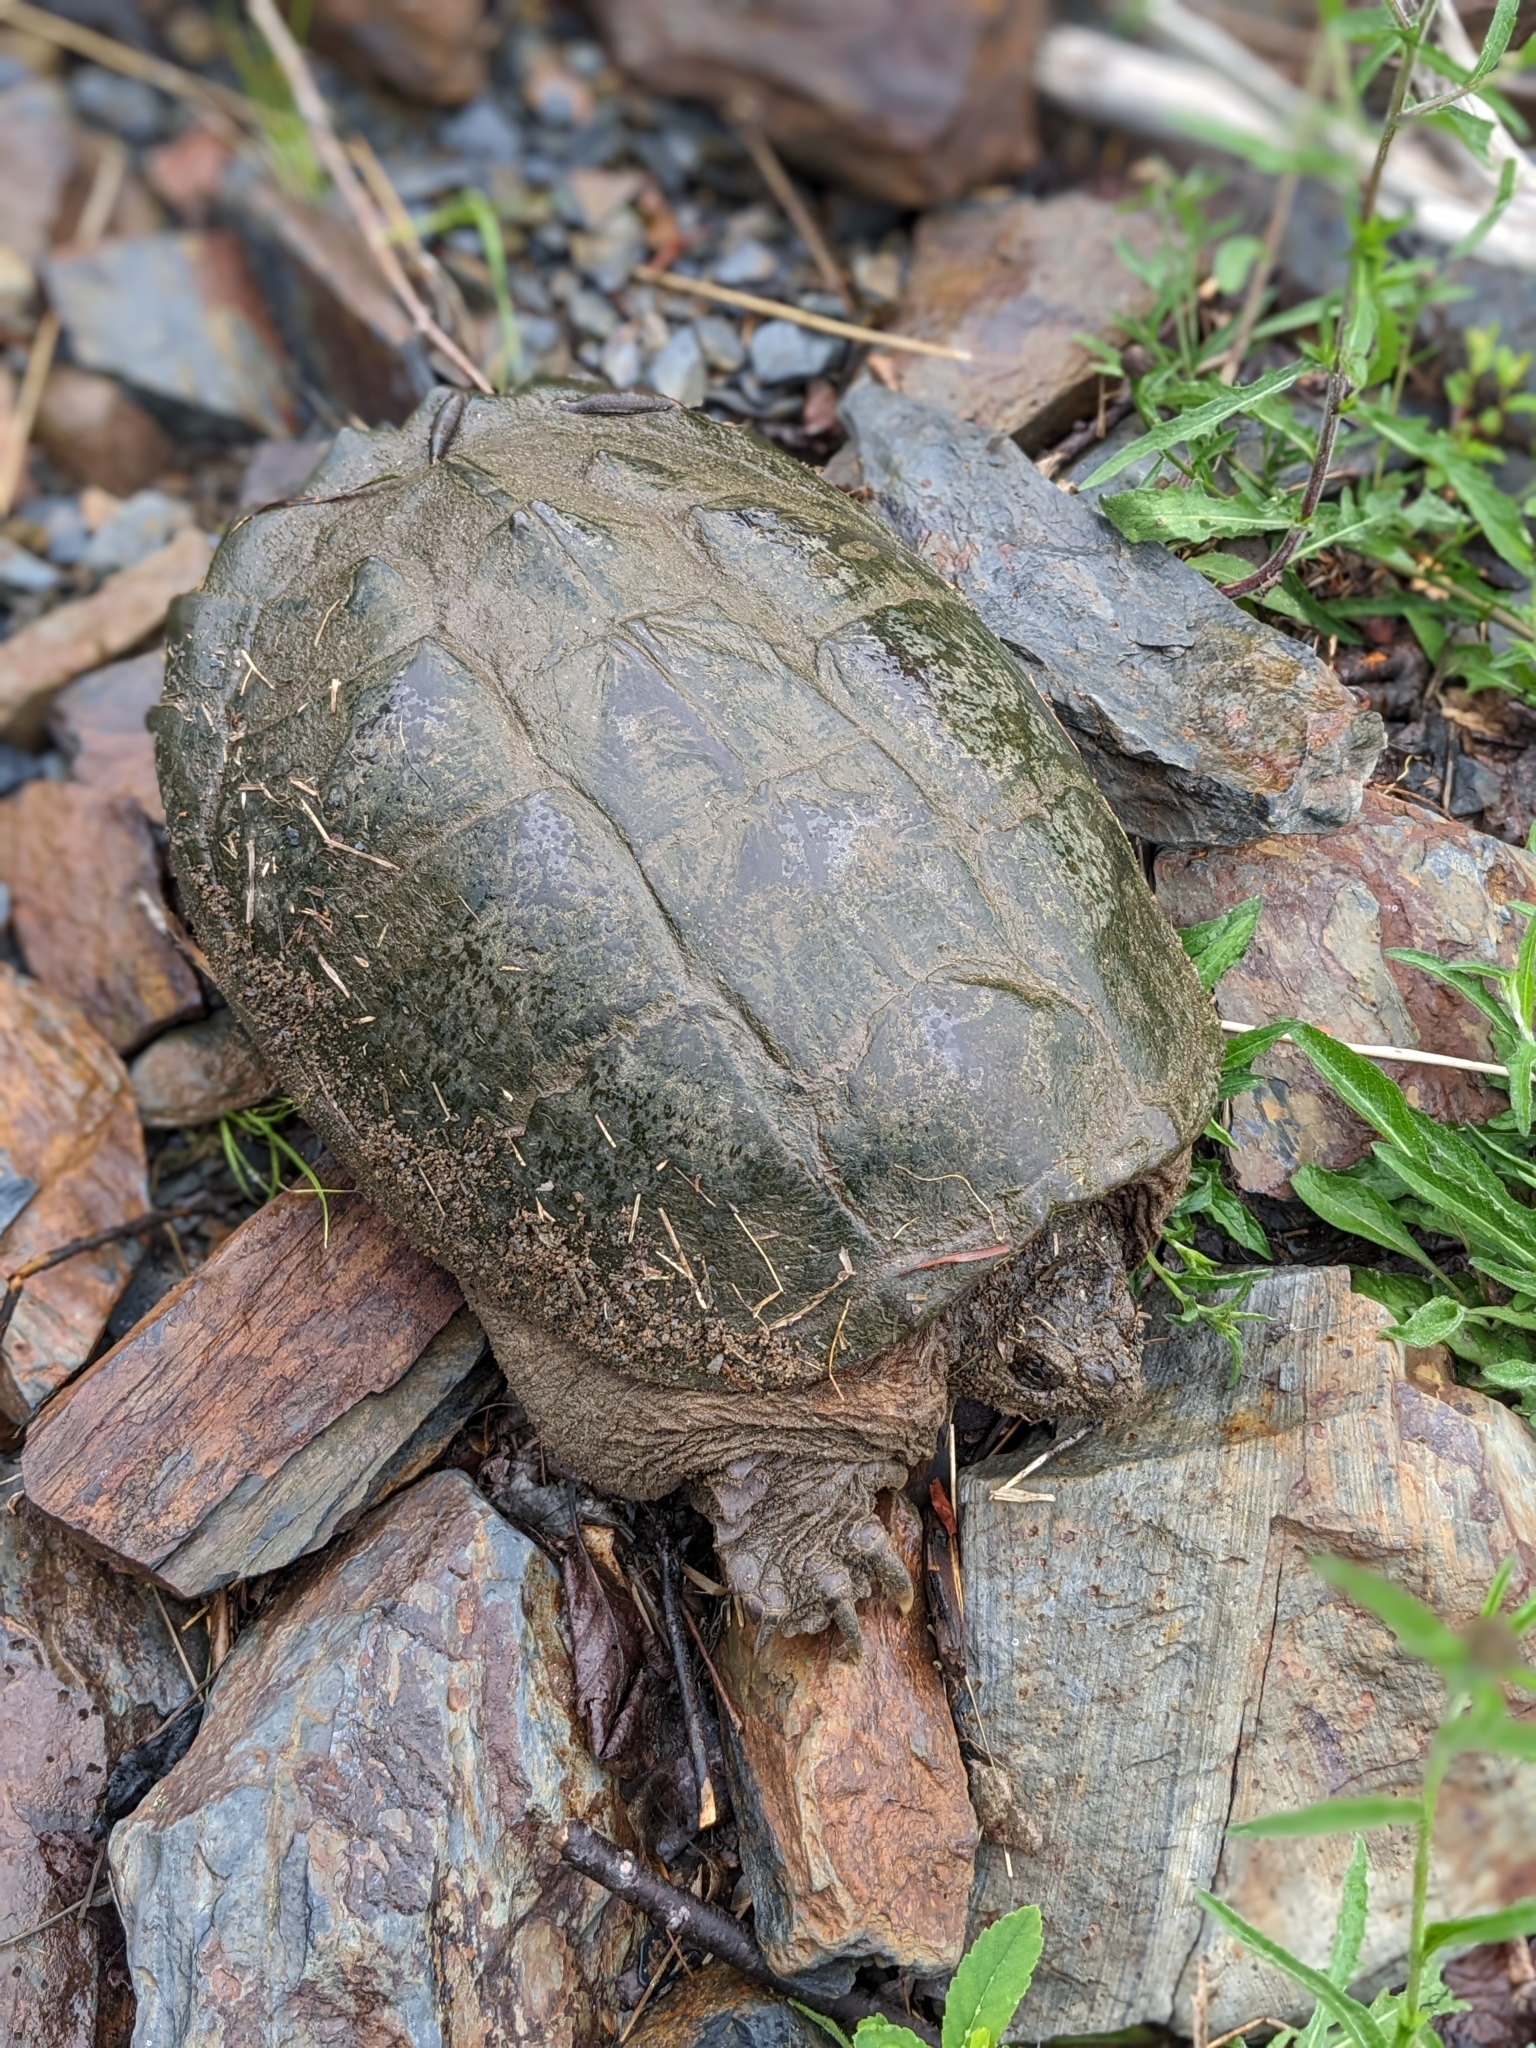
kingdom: Animalia
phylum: Chordata
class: Testudines
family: Chelydridae
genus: Chelydra
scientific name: Chelydra serpentina
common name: Common snapping turtle
